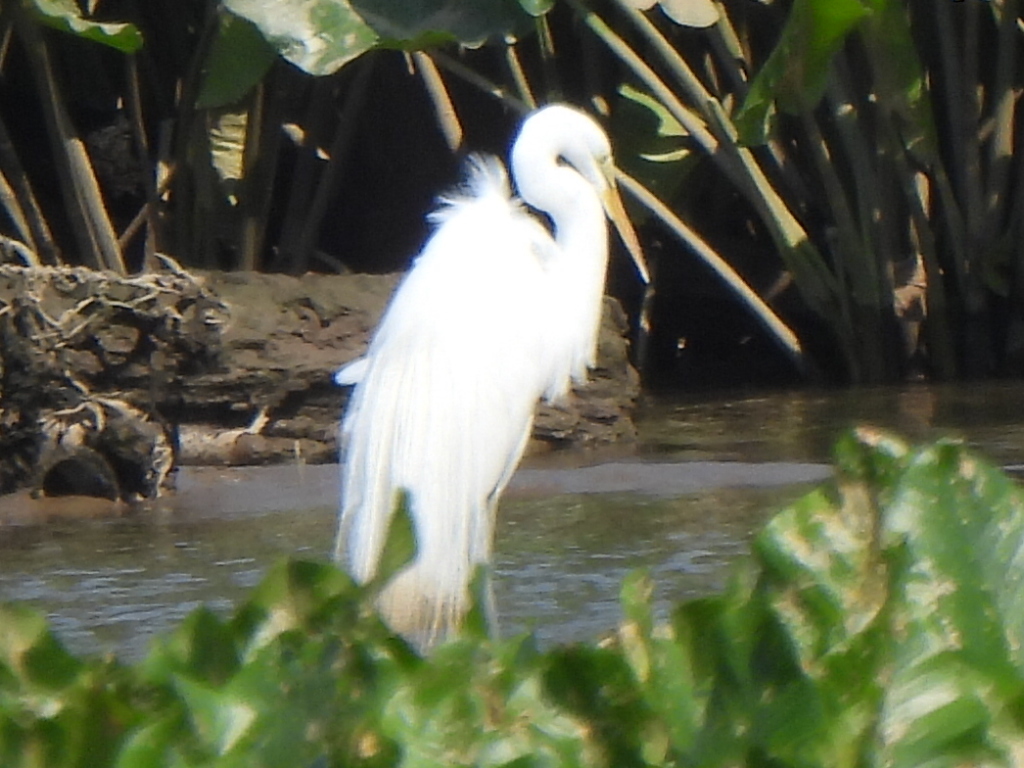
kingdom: Animalia
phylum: Chordata
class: Aves
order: Pelecaniformes
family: Ardeidae
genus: Ardea
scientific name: Ardea alba
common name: Great egret
